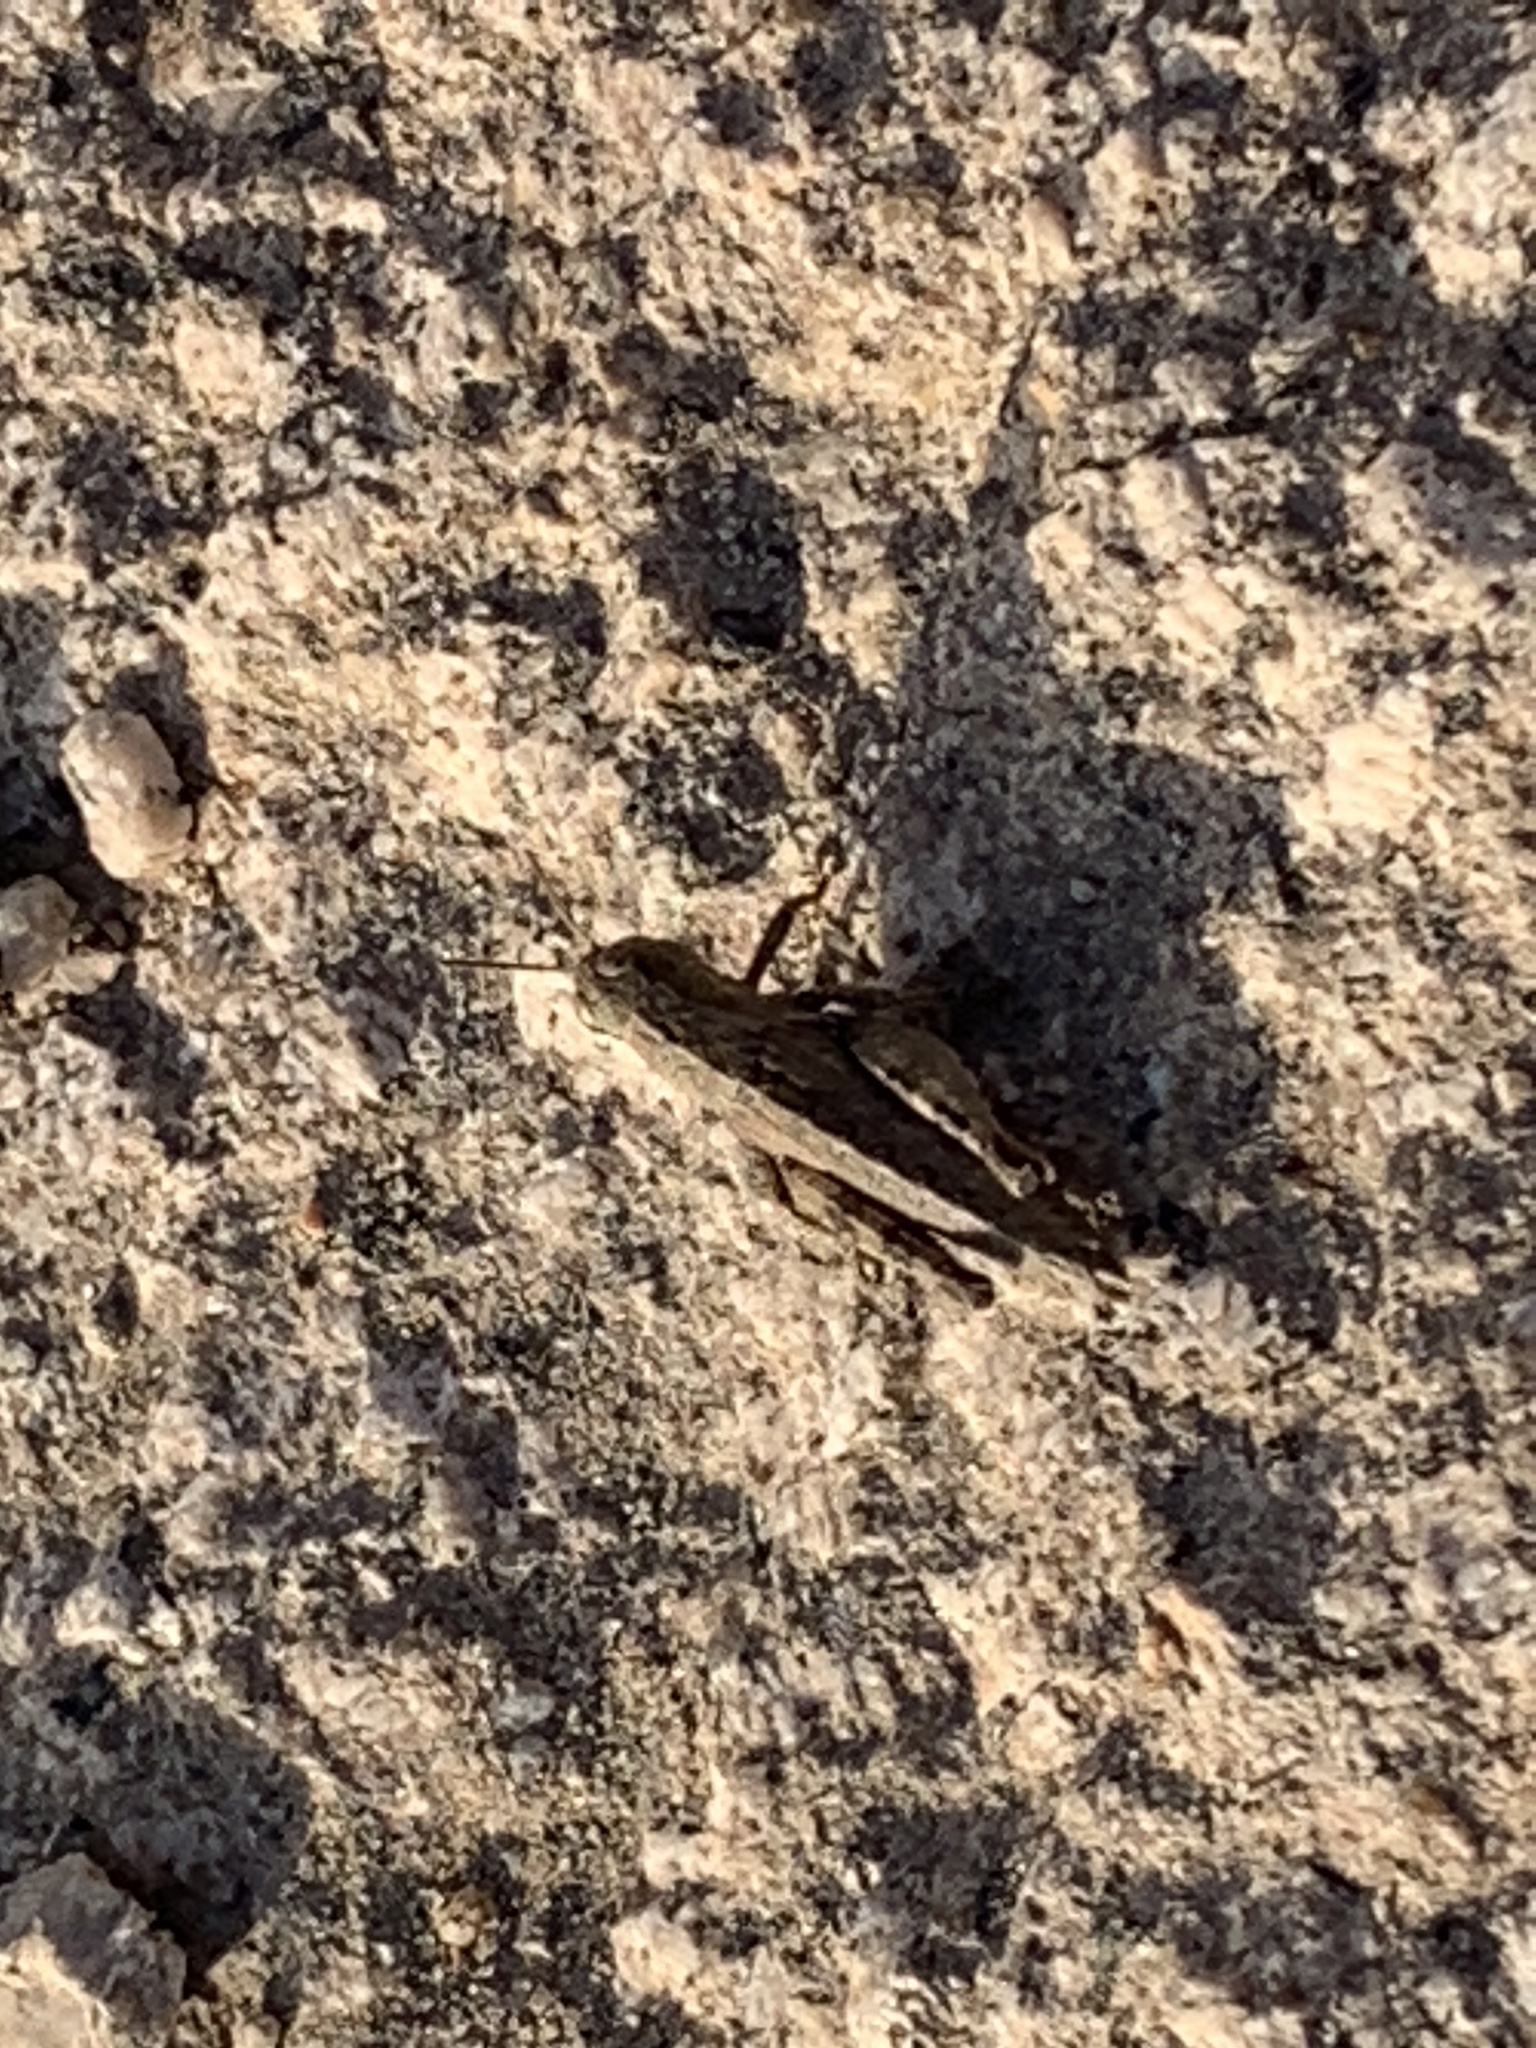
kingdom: Animalia
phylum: Arthropoda
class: Insecta
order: Orthoptera
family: Acrididae
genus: Pezotettix
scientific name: Pezotettix giornae
